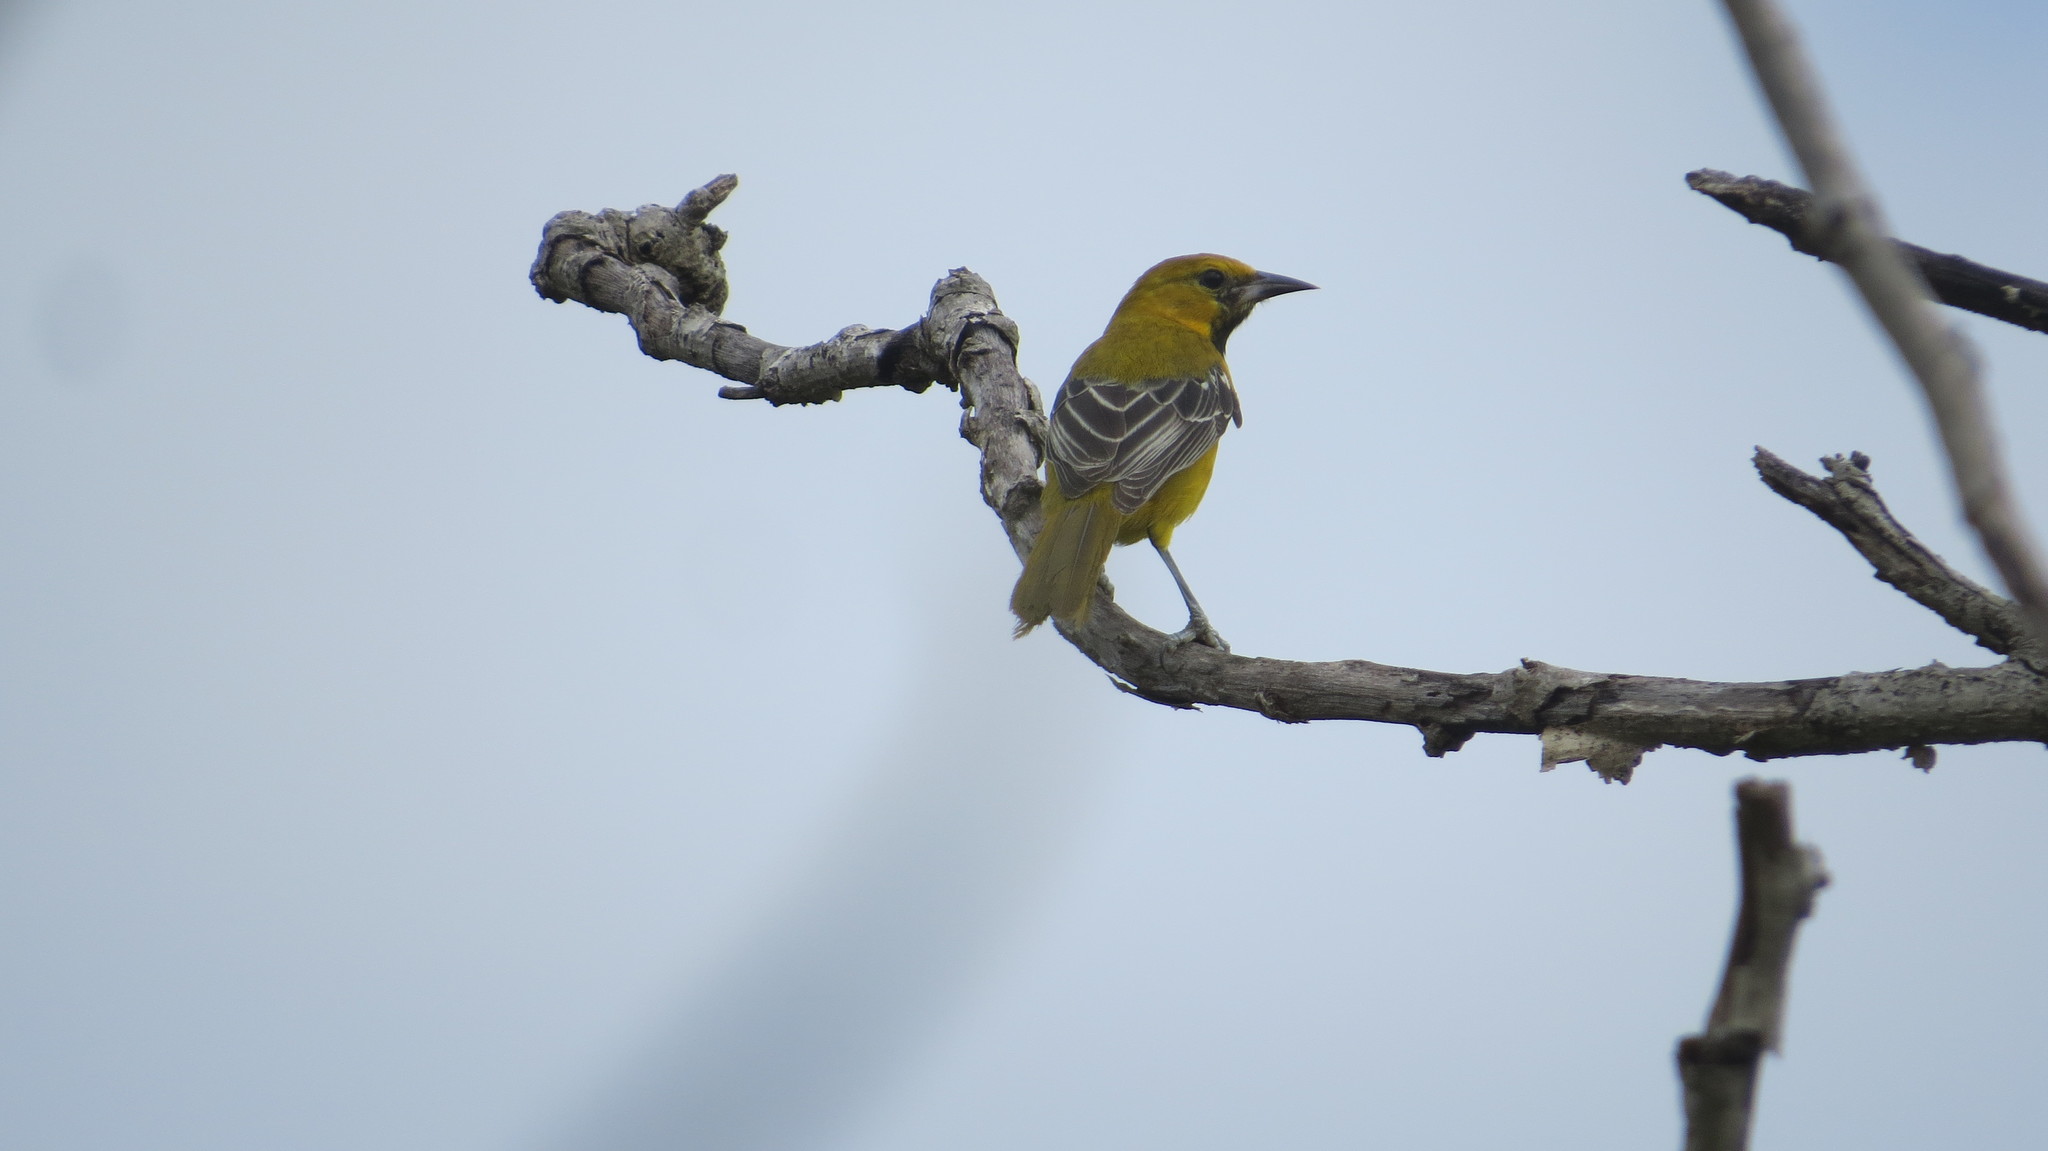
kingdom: Animalia
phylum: Chordata
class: Aves
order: Passeriformes
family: Icteridae
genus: Icterus
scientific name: Icterus spurius
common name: Orchard oriole
